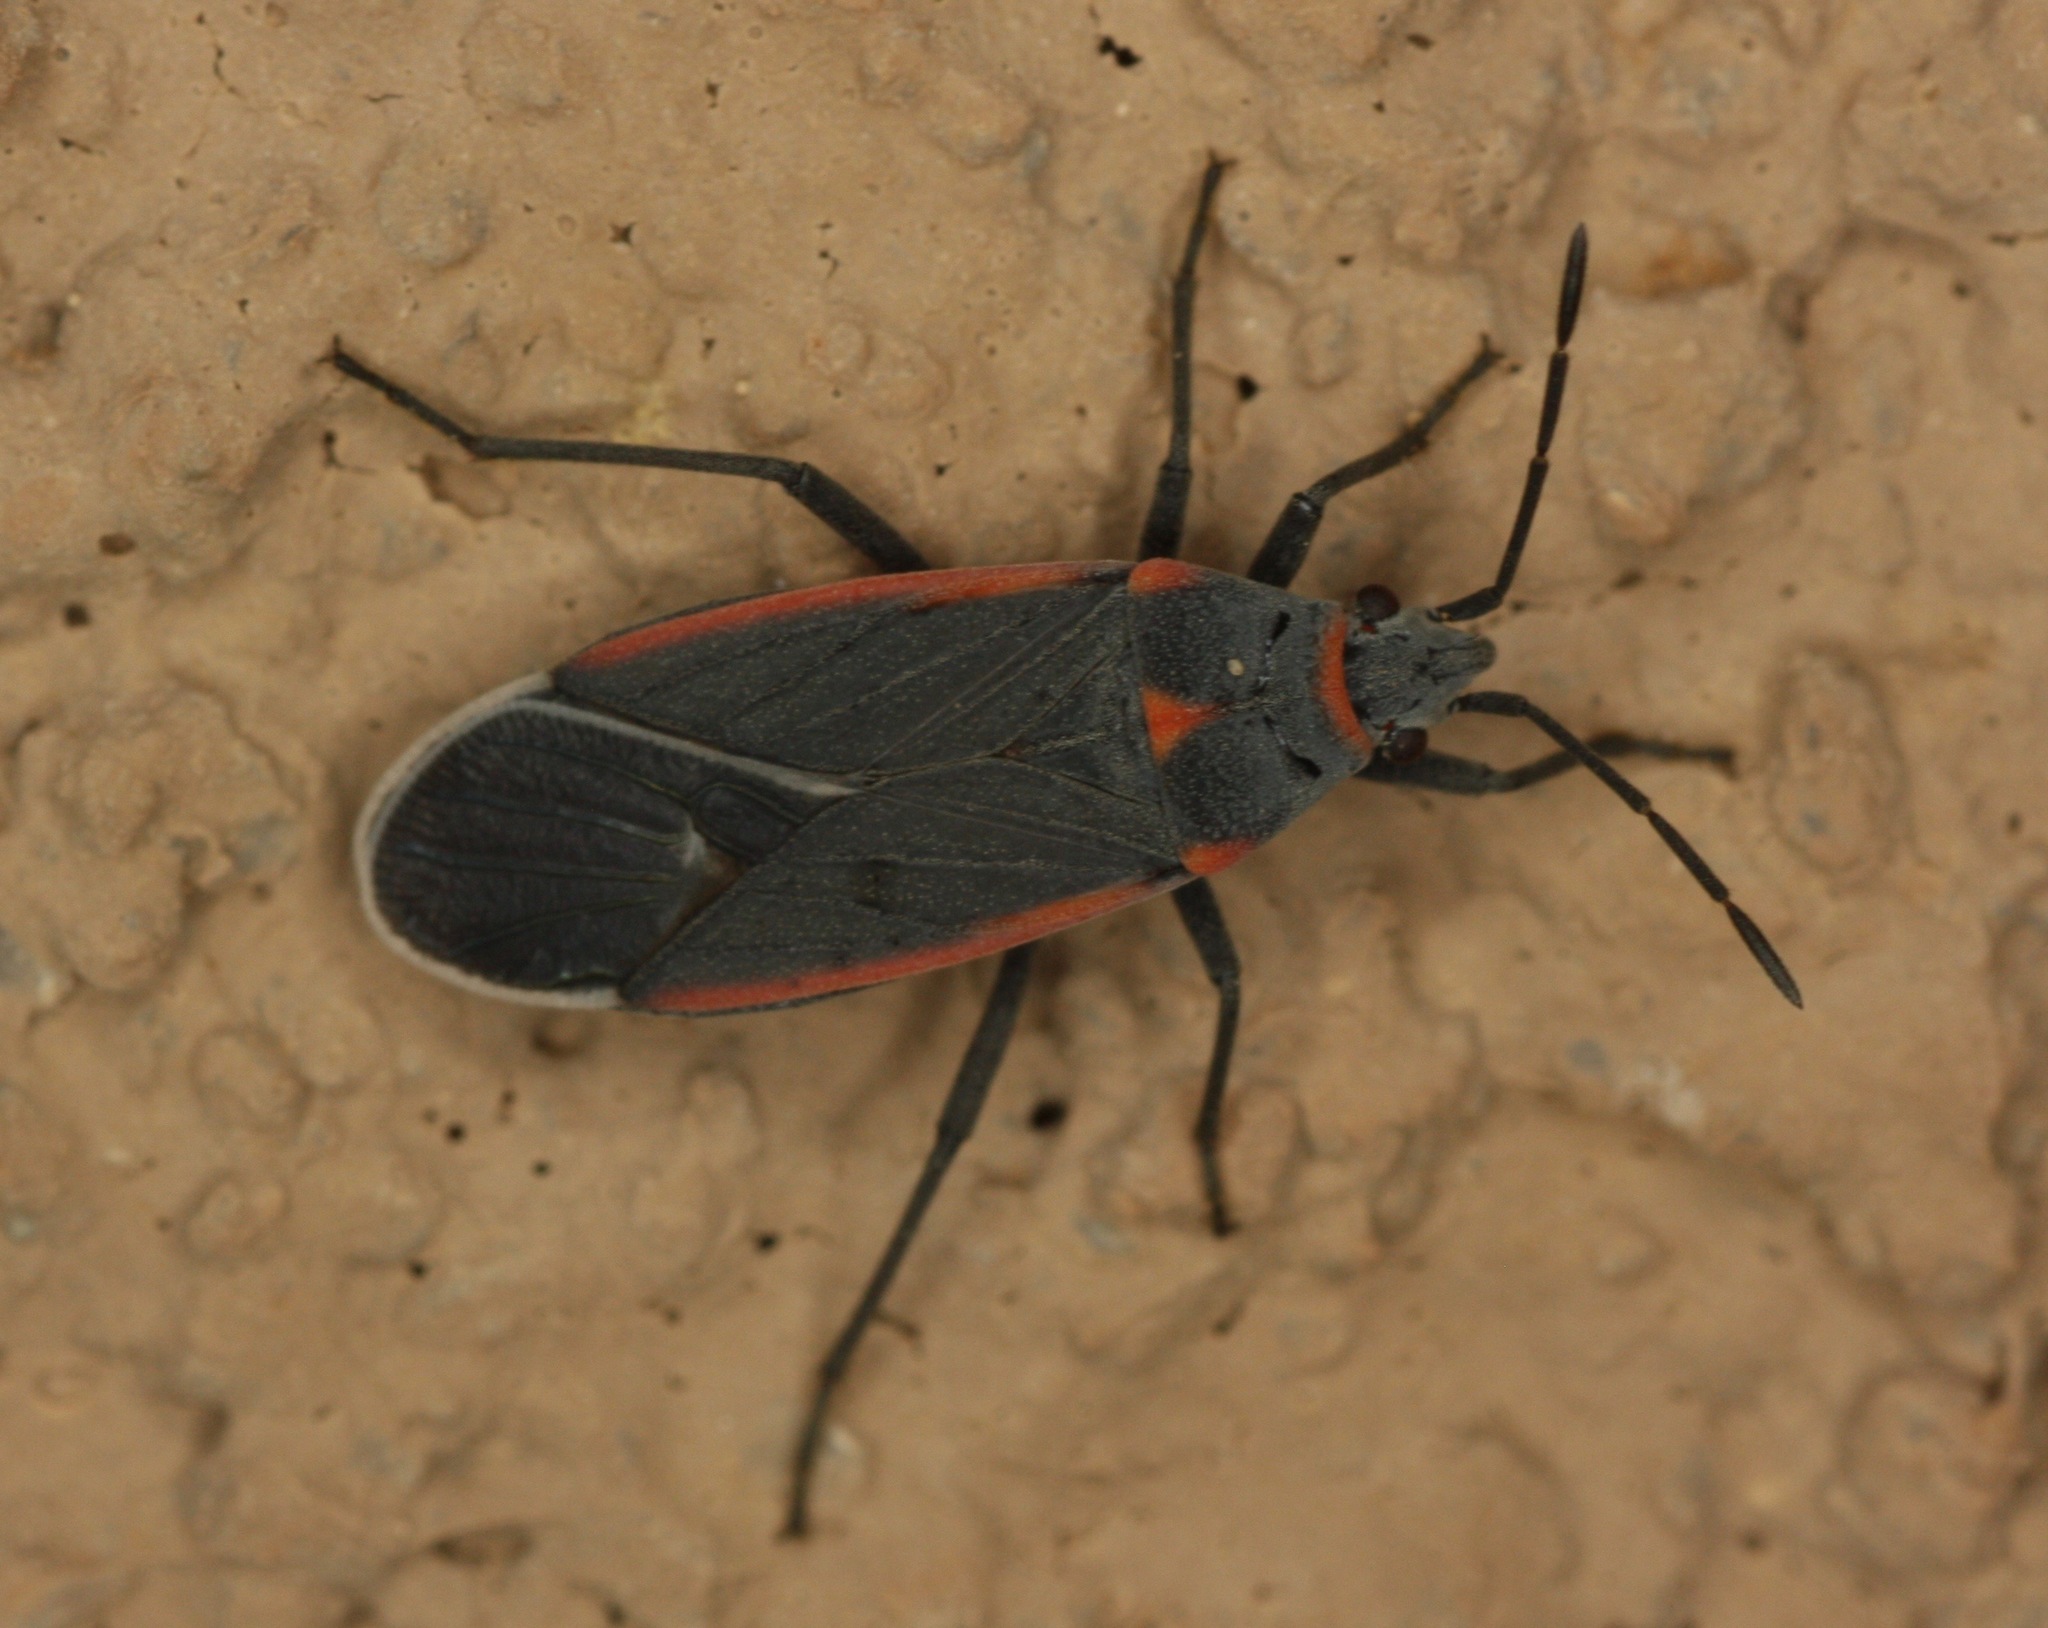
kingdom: Animalia
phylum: Arthropoda
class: Insecta
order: Hemiptera
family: Lygaeidae
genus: Melacoryphus
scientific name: Melacoryphus lateralis
